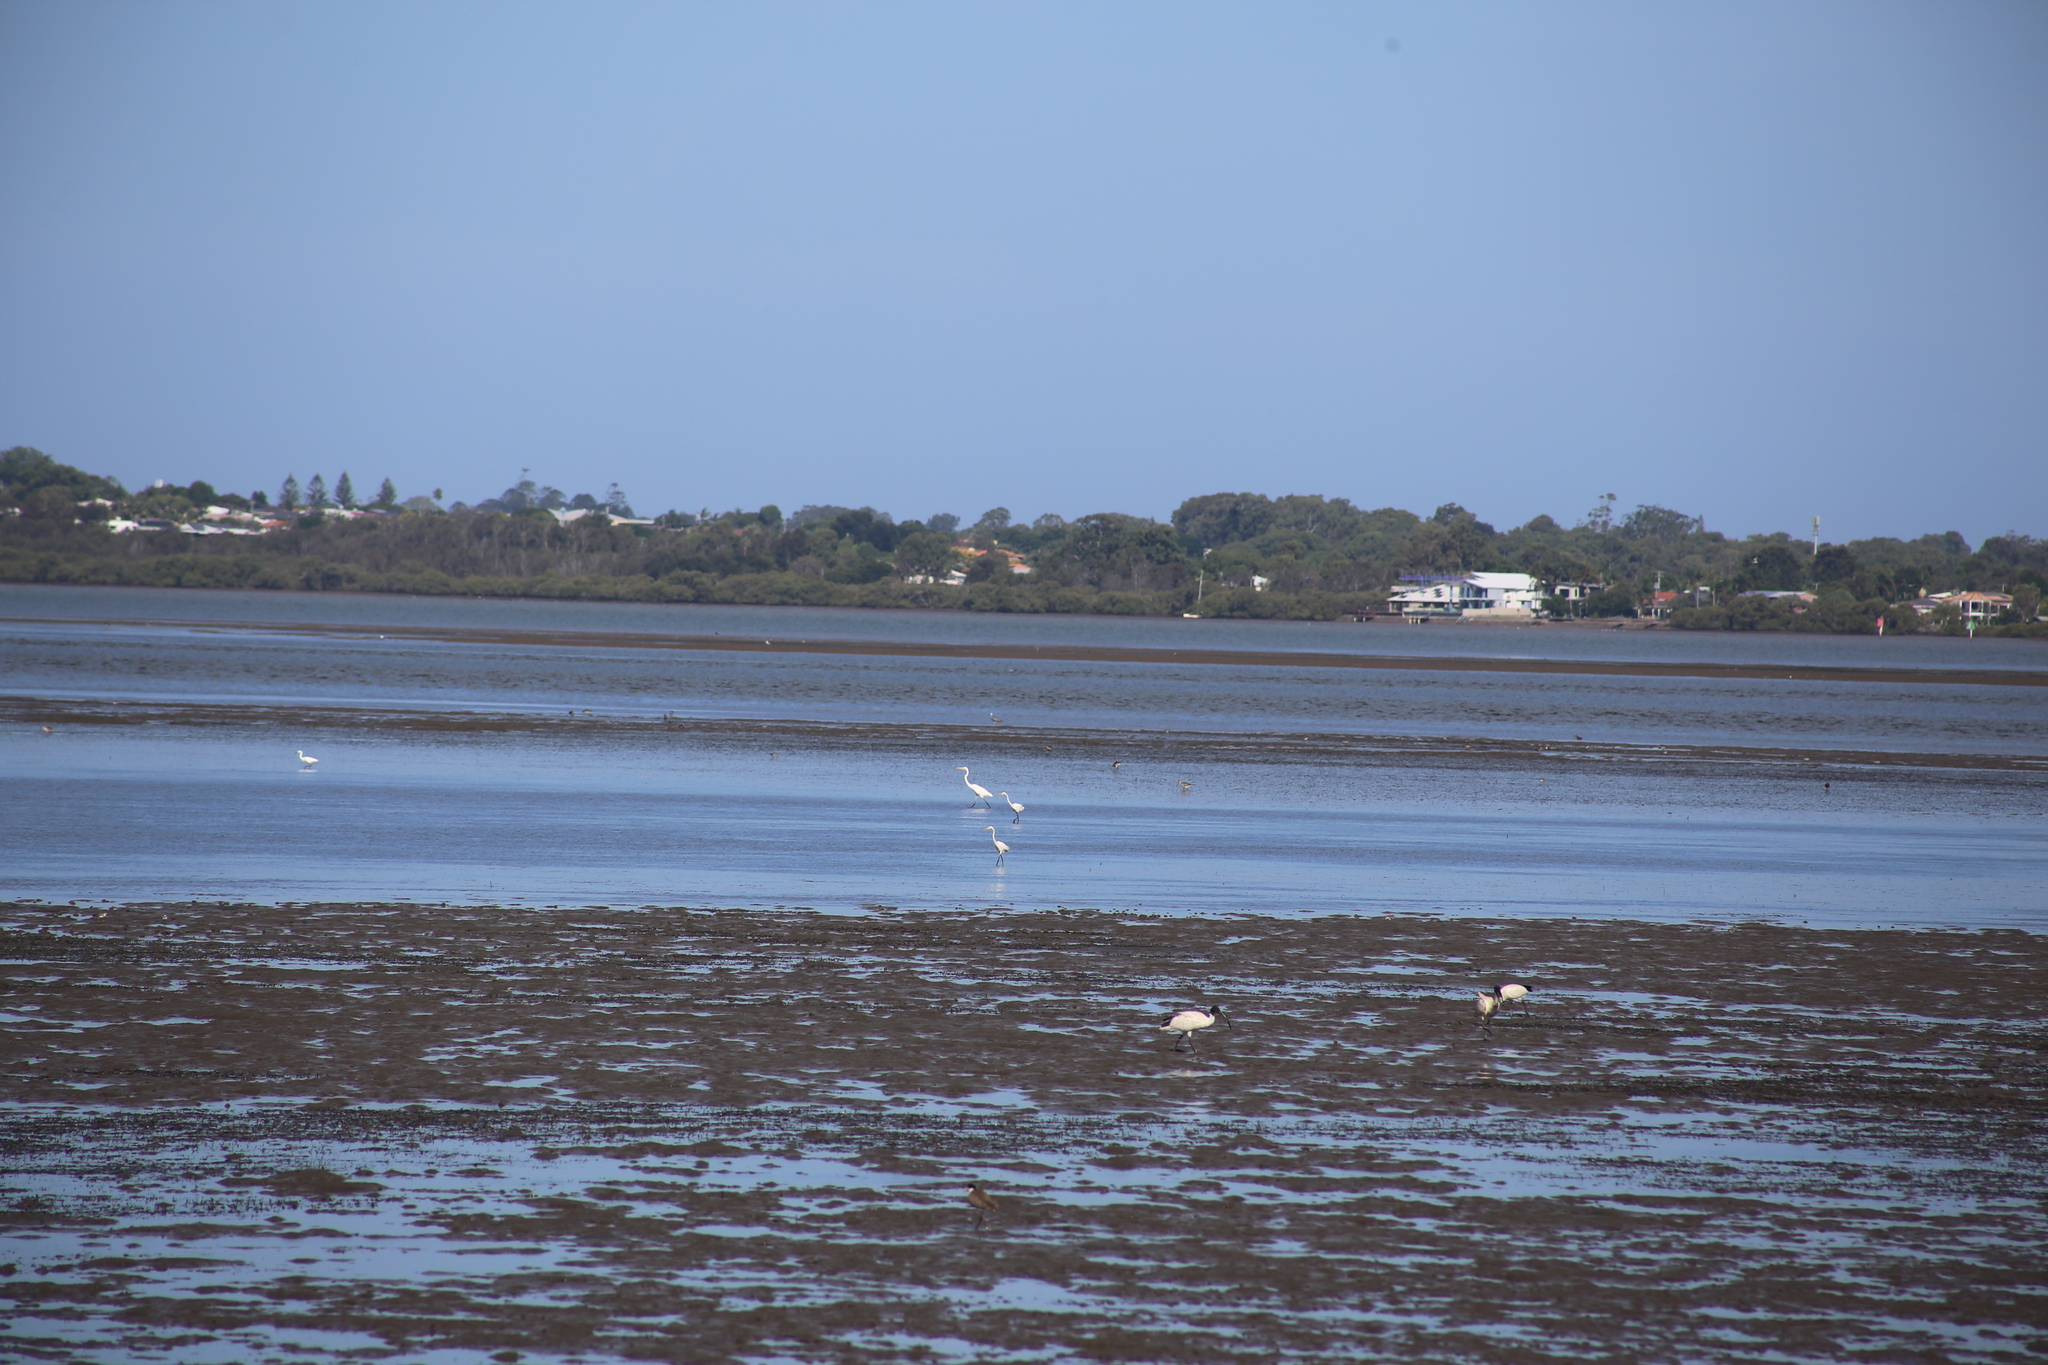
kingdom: Animalia
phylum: Chordata
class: Aves
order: Pelecaniformes
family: Ardeidae
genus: Ardea
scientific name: Ardea alba
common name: Great egret
